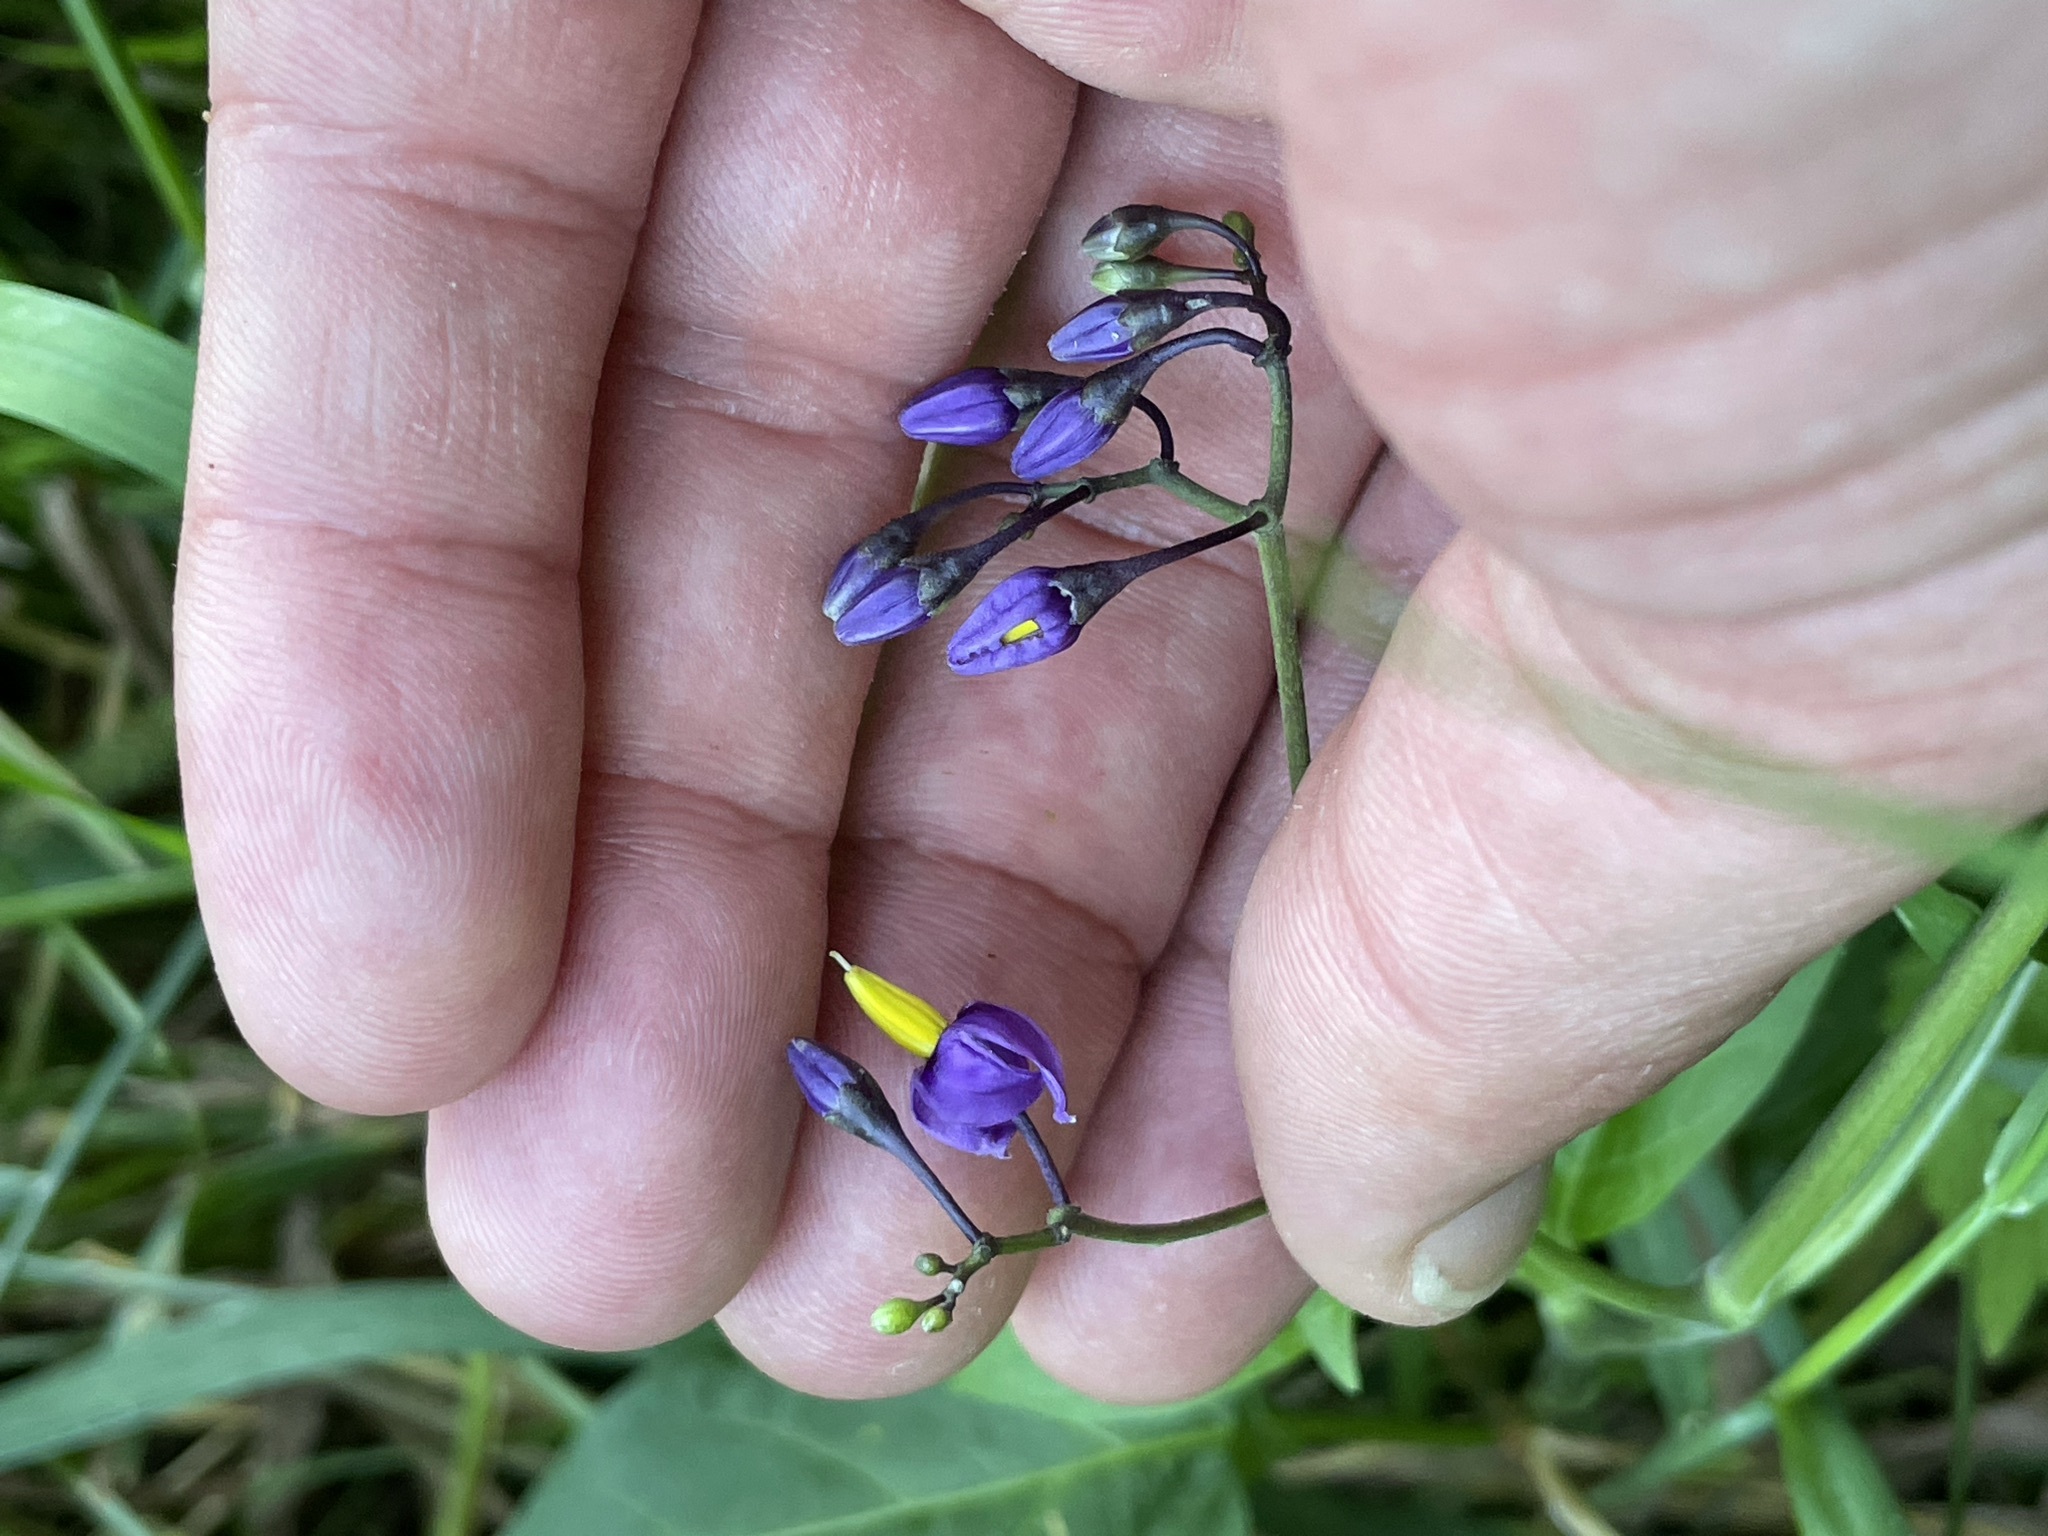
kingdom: Plantae
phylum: Tracheophyta
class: Magnoliopsida
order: Solanales
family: Solanaceae
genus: Solanum
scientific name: Solanum dulcamara
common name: Climbing nightshade
